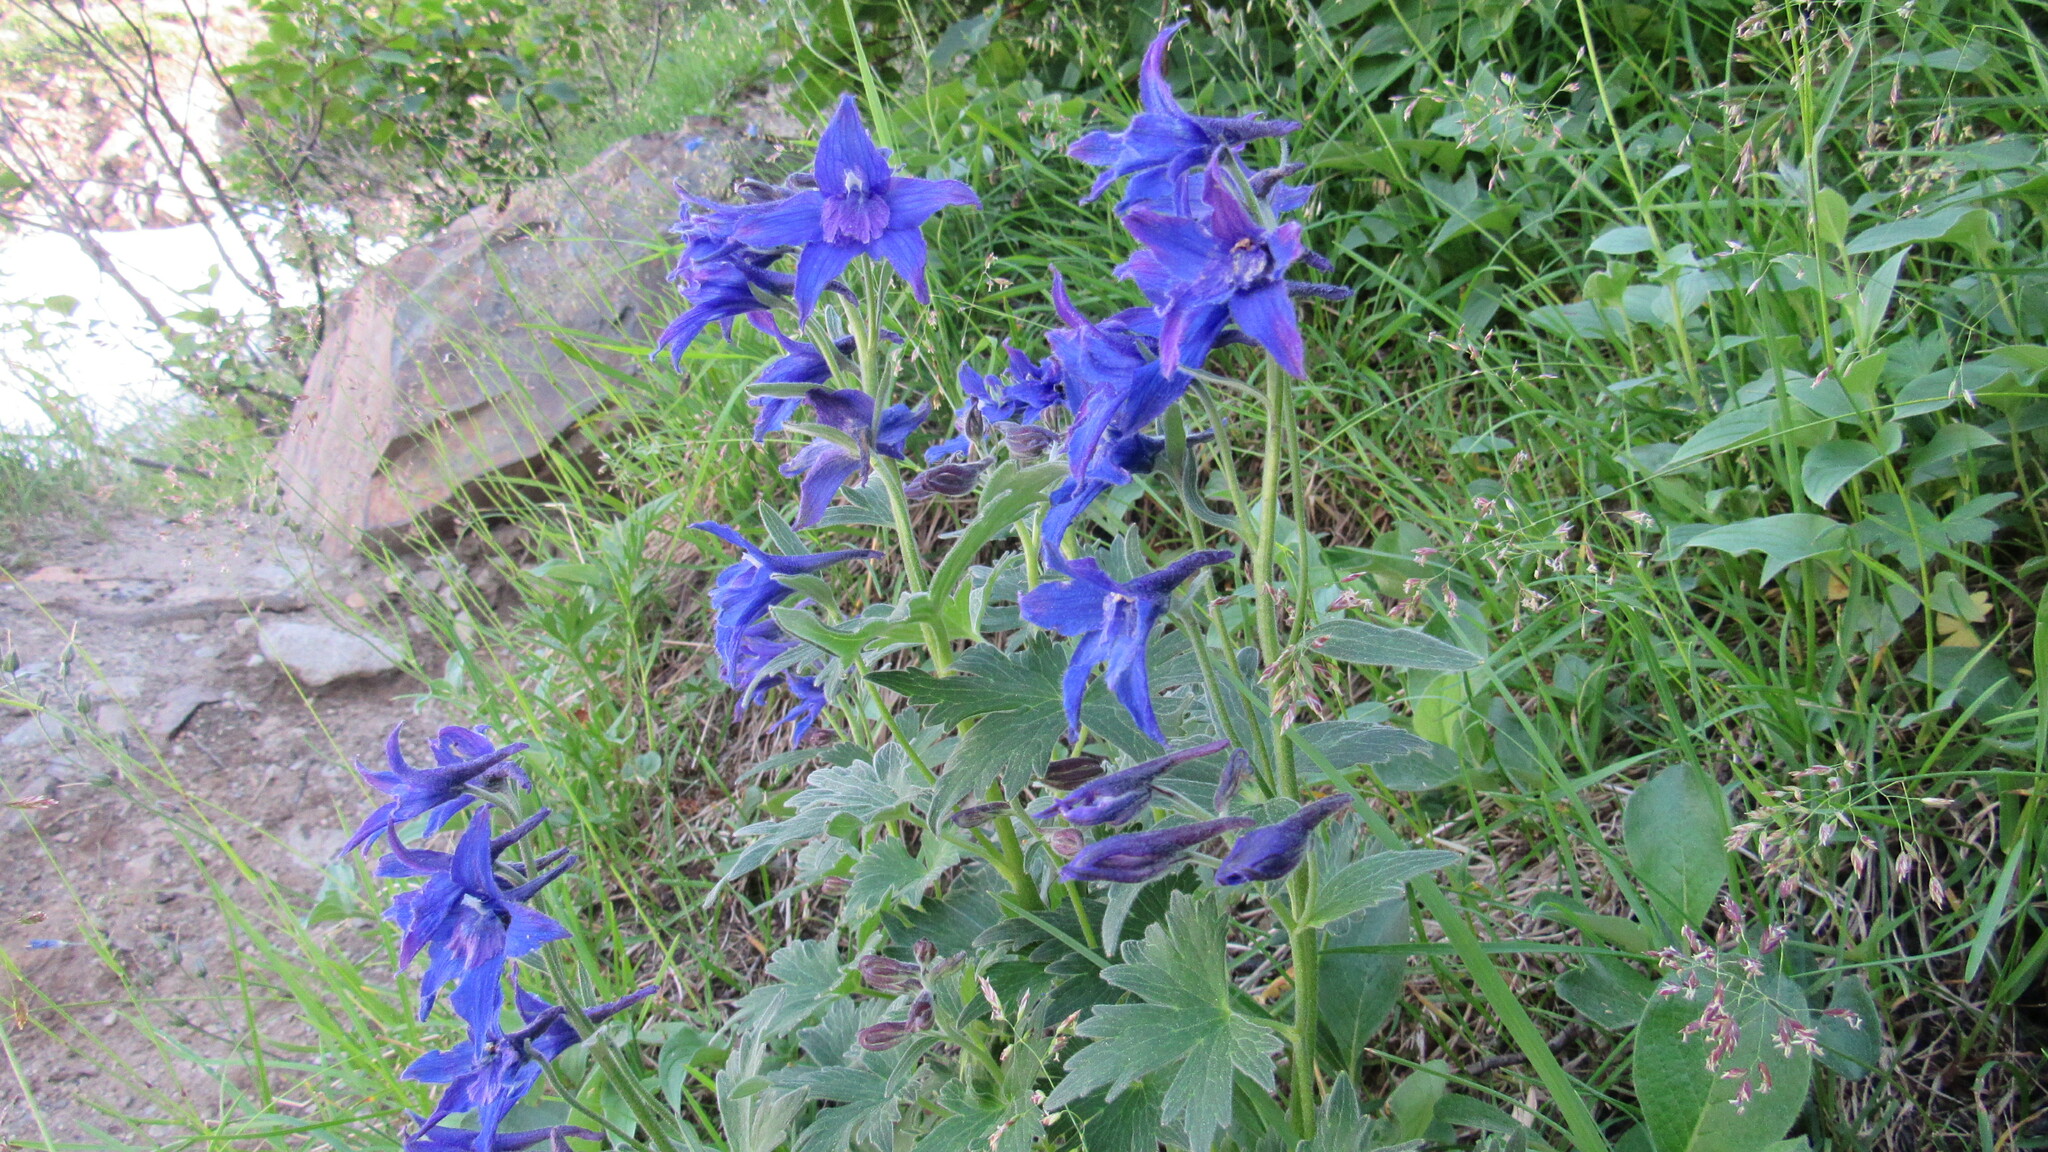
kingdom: Plantae
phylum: Tracheophyta
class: Magnoliopsida
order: Ranunculales
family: Ranunculaceae
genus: Delphinium
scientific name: Delphinium brachycentrum
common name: Arctic larkspur
